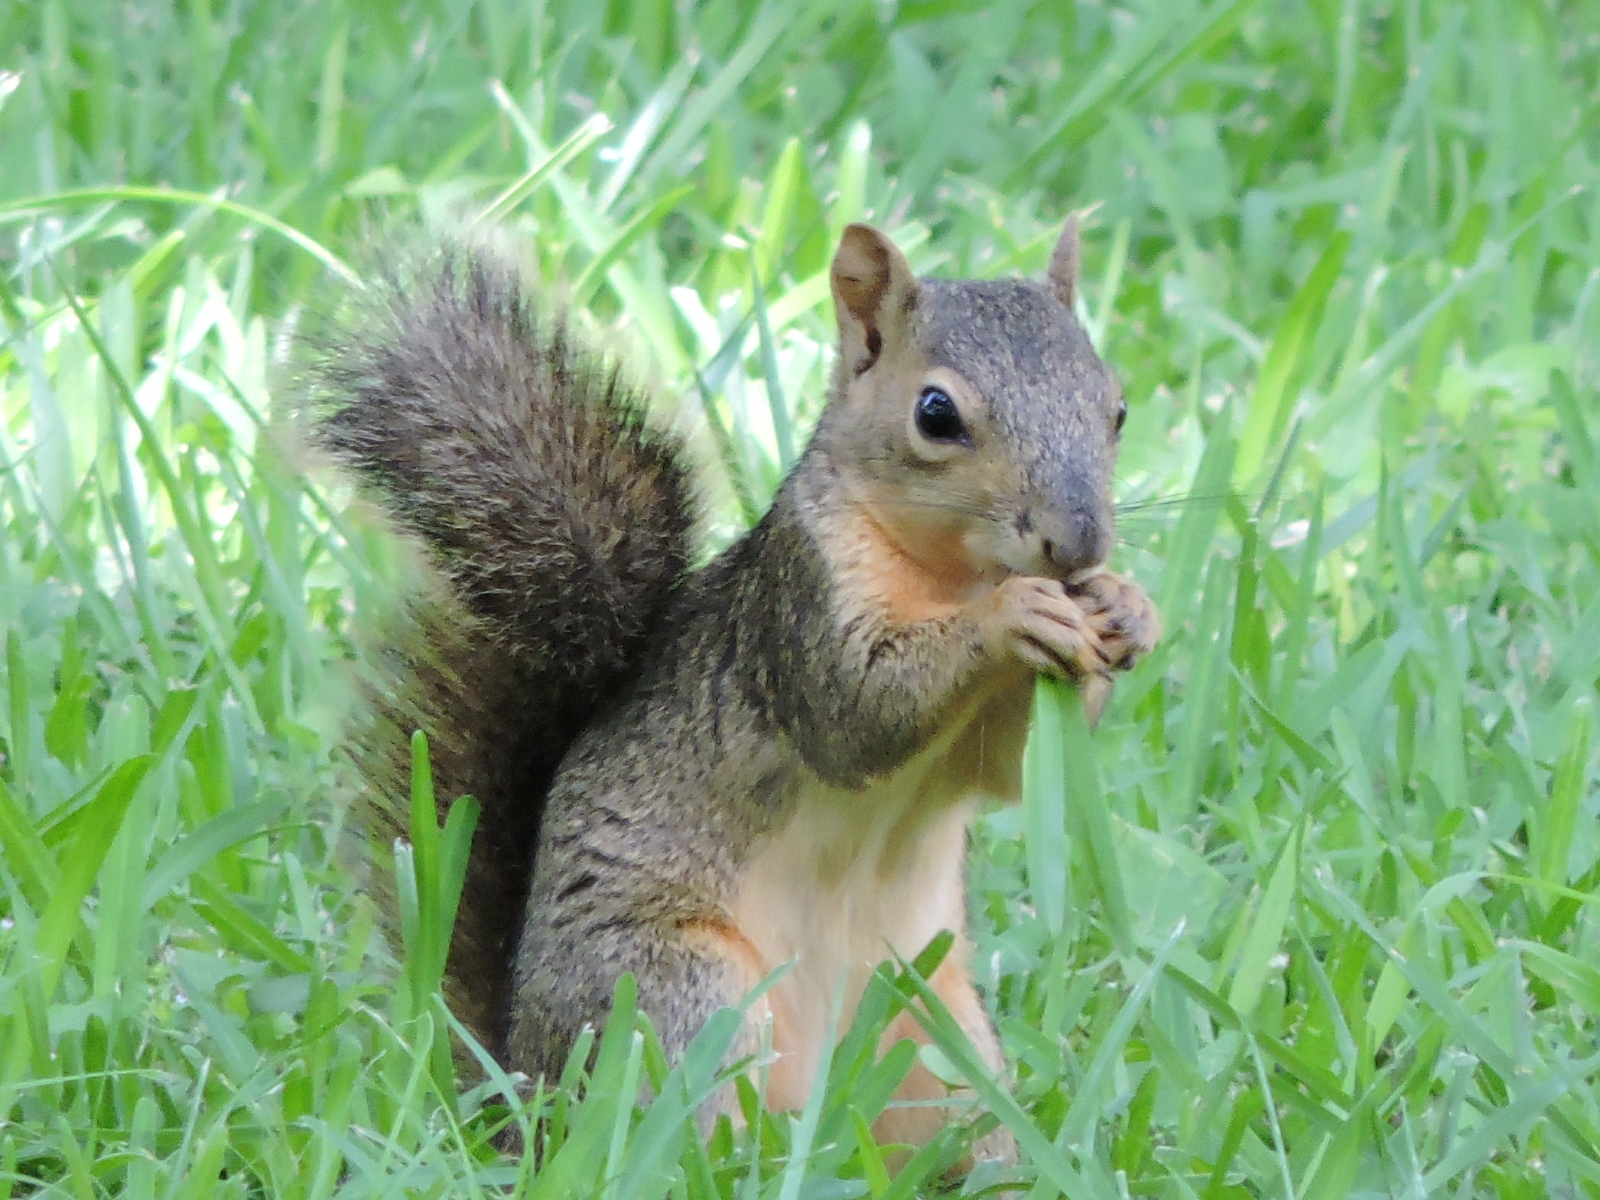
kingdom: Animalia
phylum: Chordata
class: Mammalia
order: Rodentia
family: Sciuridae
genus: Sciurus
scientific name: Sciurus niger
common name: Fox squirrel
